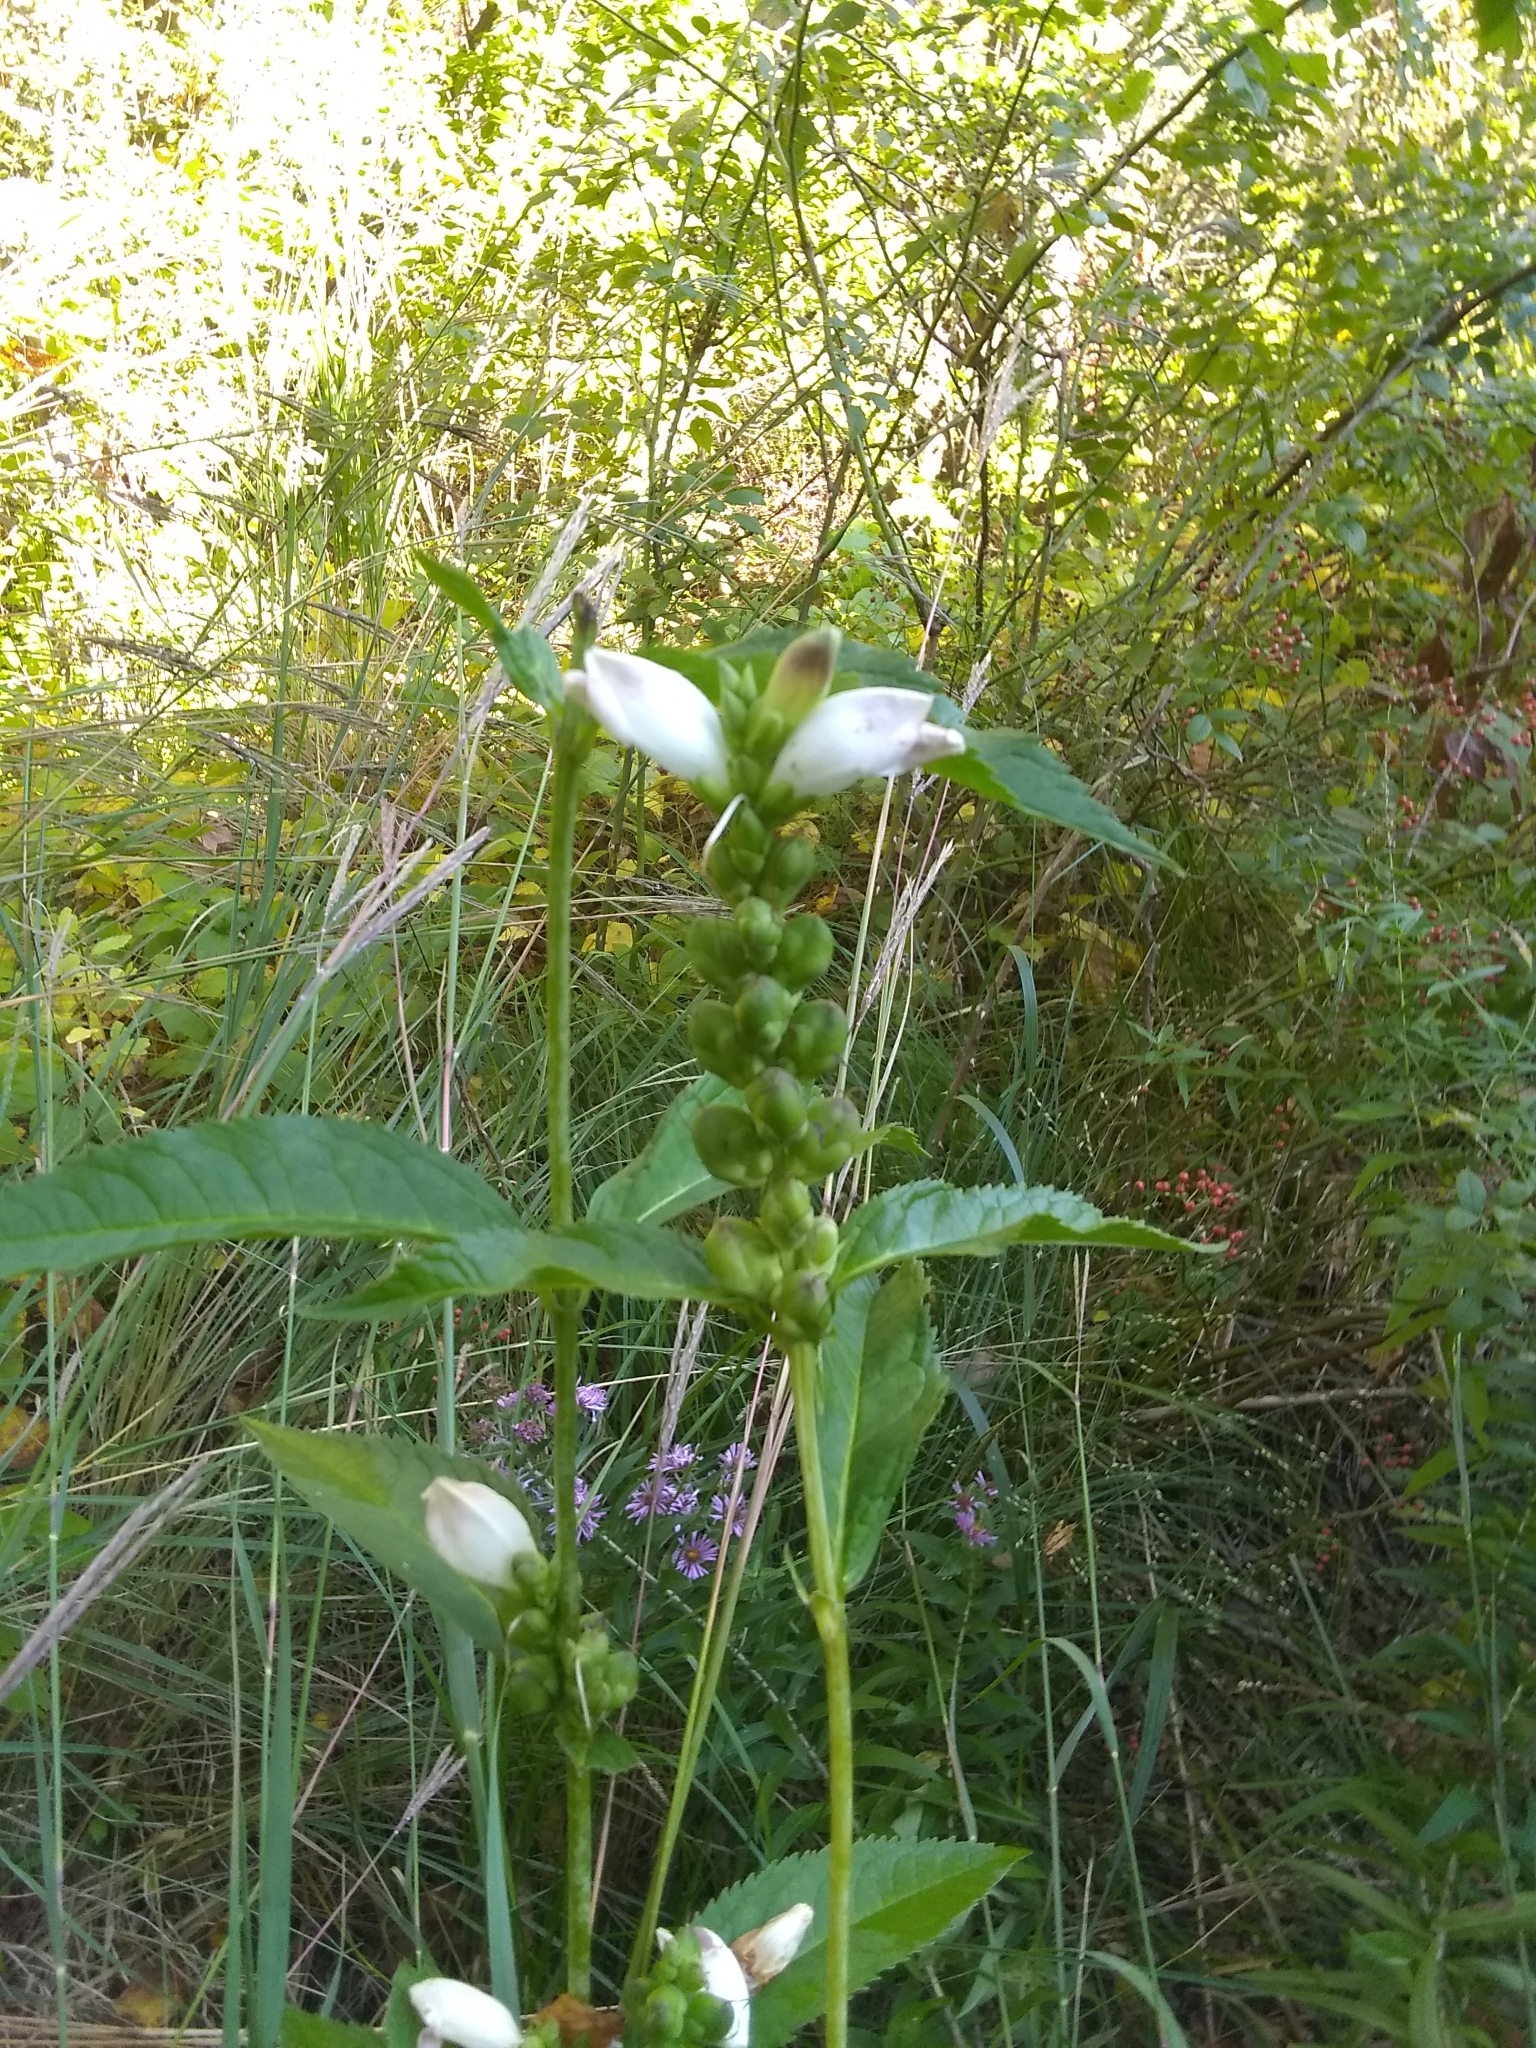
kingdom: Plantae
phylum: Tracheophyta
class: Magnoliopsida
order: Lamiales
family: Plantaginaceae
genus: Chelone
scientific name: Chelone glabra
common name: Snakehead
